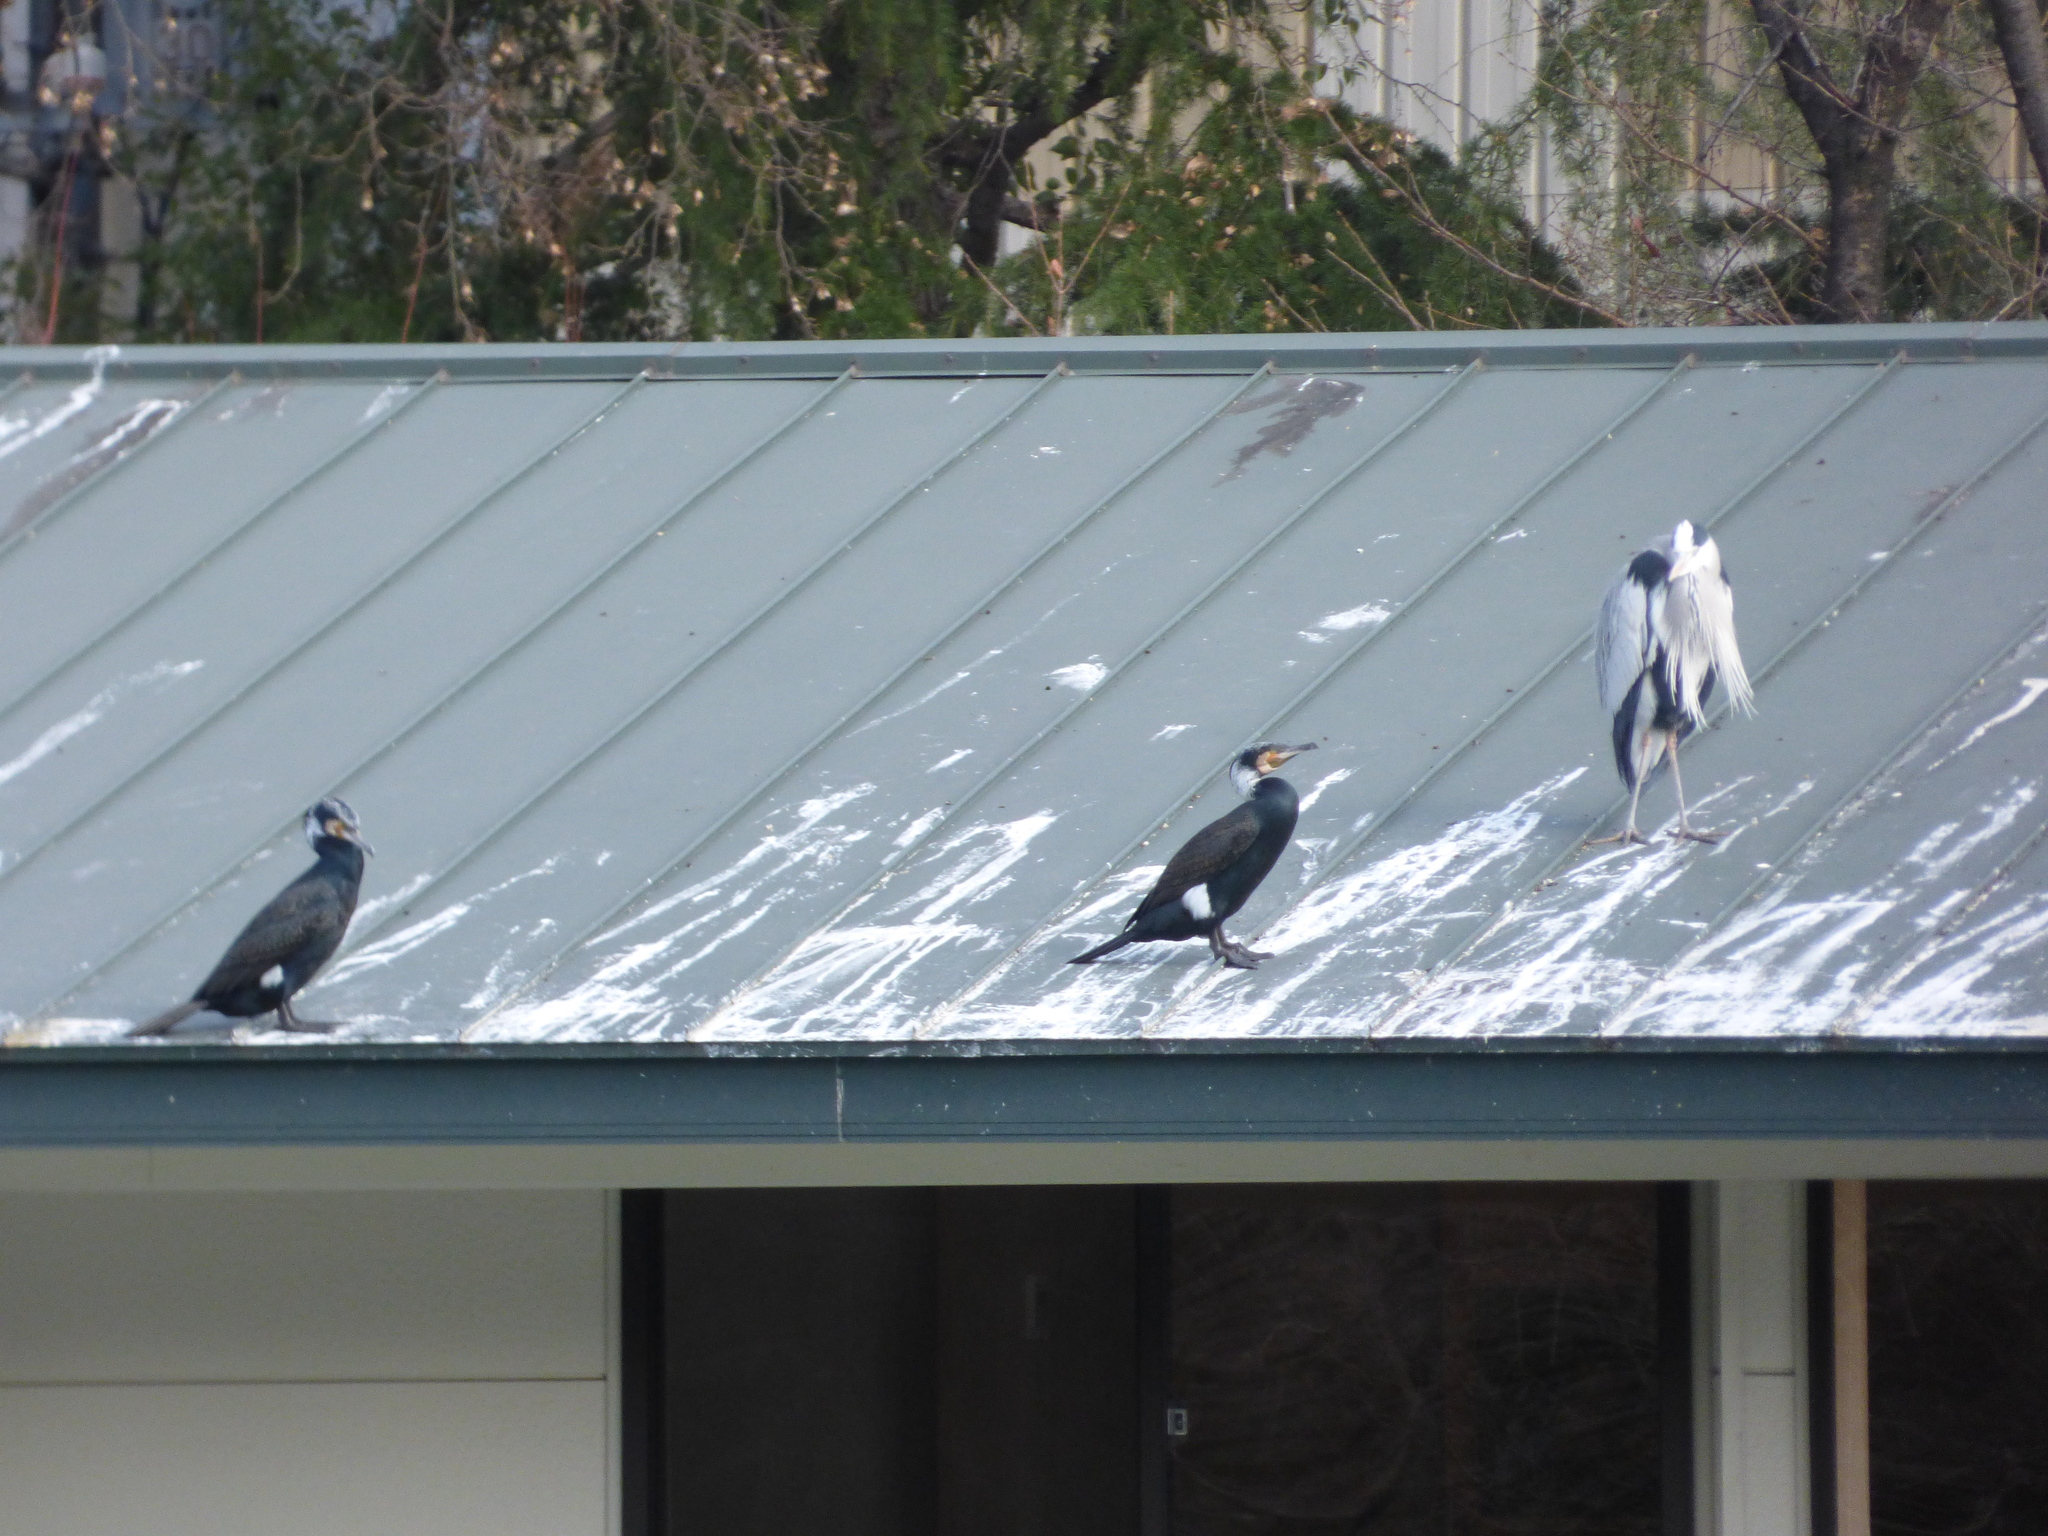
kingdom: Animalia
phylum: Chordata
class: Aves
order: Pelecaniformes
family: Ardeidae
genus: Ardea
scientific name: Ardea cinerea
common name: Grey heron
